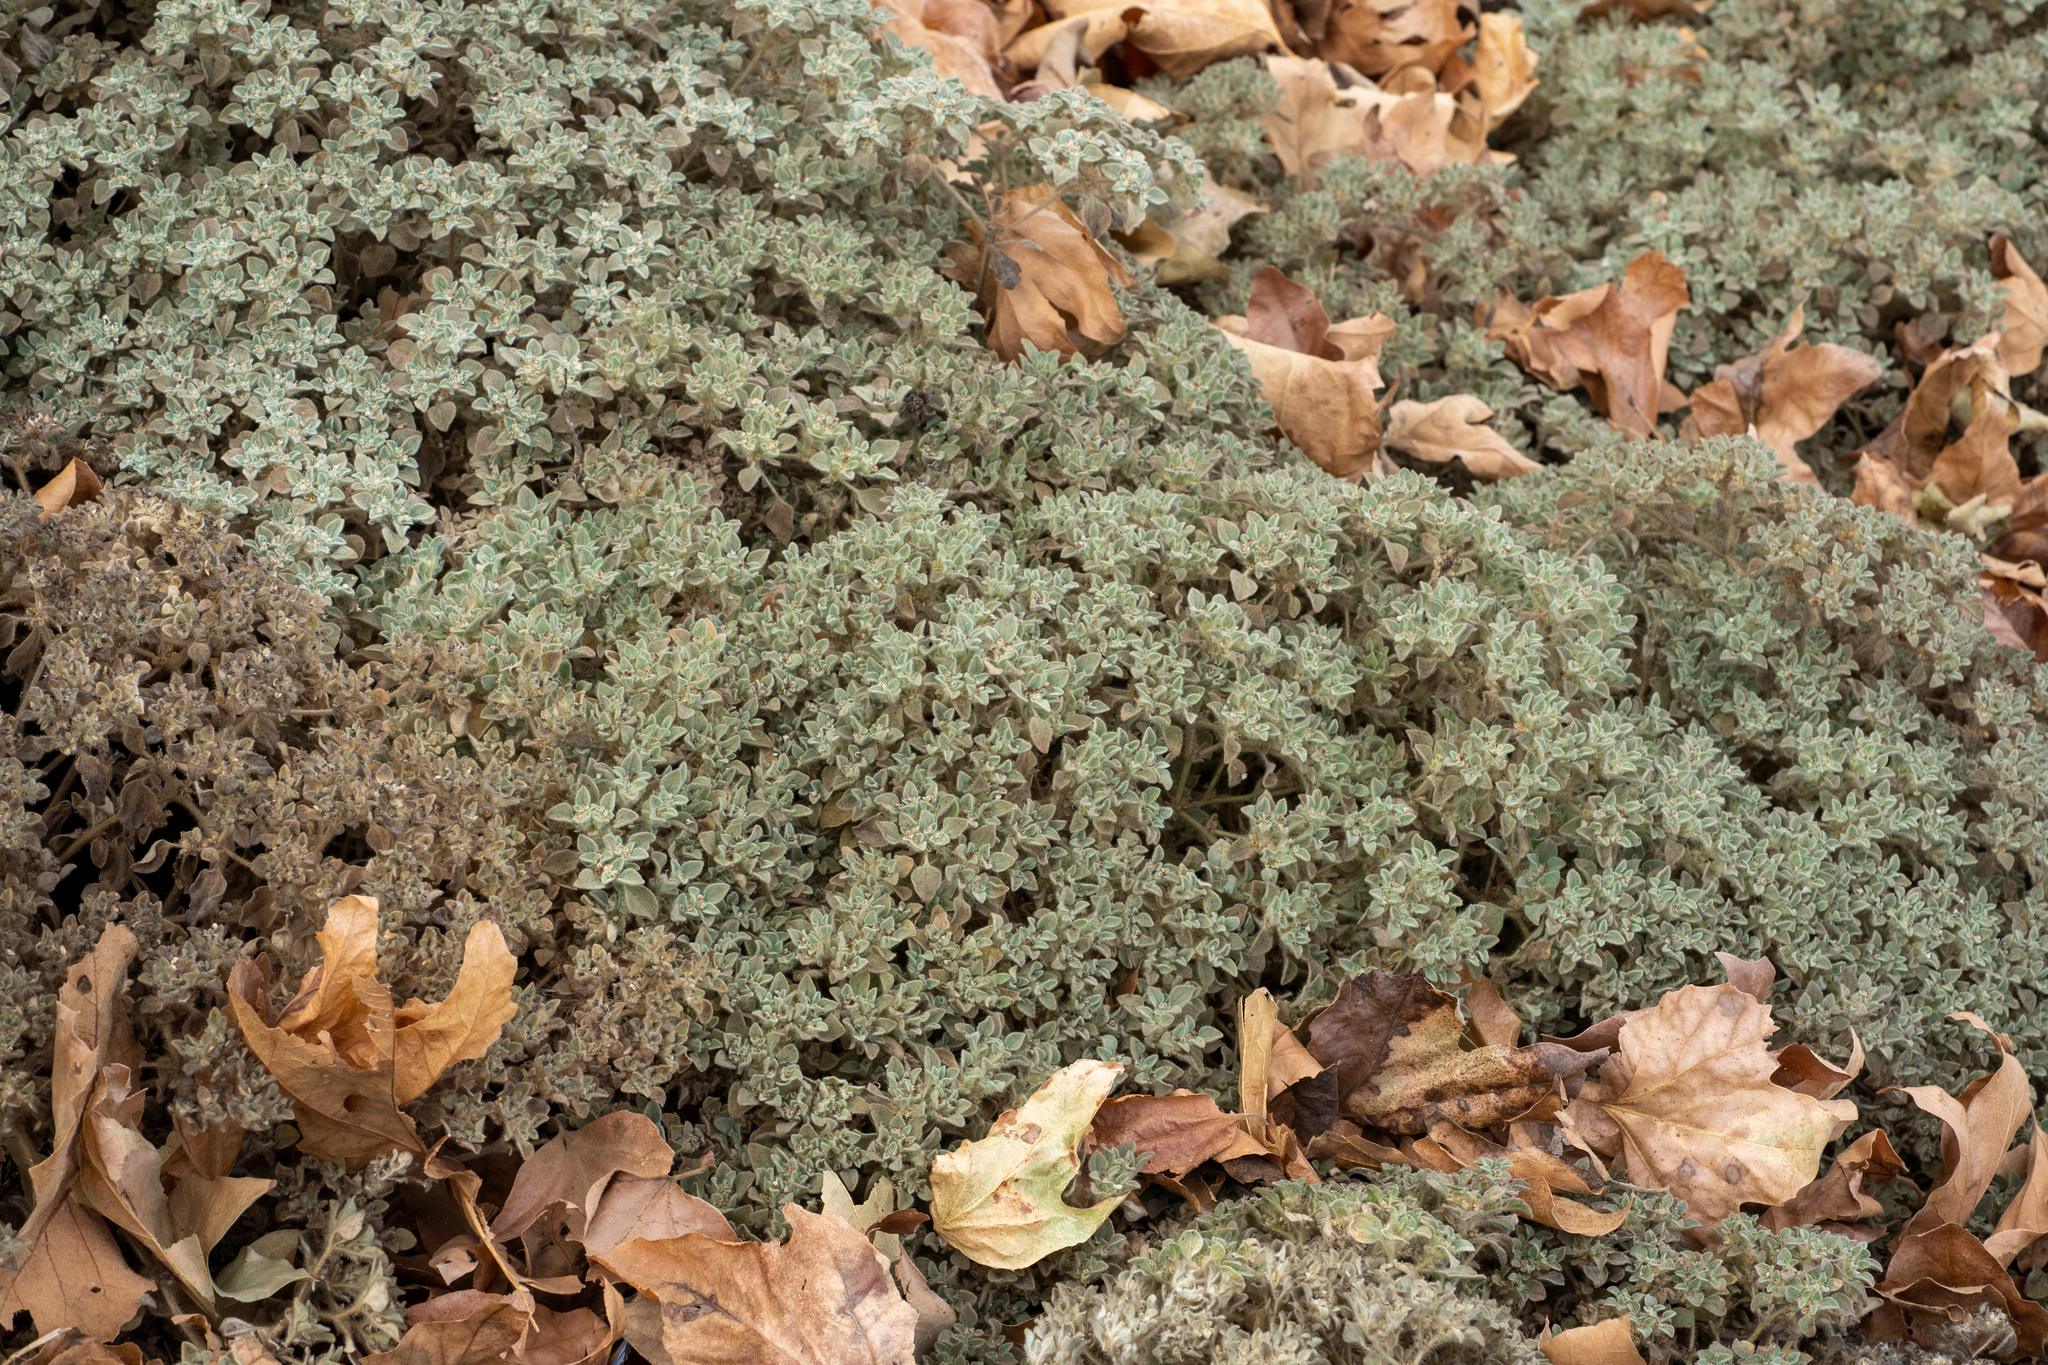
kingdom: Plantae
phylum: Tracheophyta
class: Magnoliopsida
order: Malpighiales
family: Euphorbiaceae
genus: Croton
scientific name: Croton setiger
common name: Dove weed
